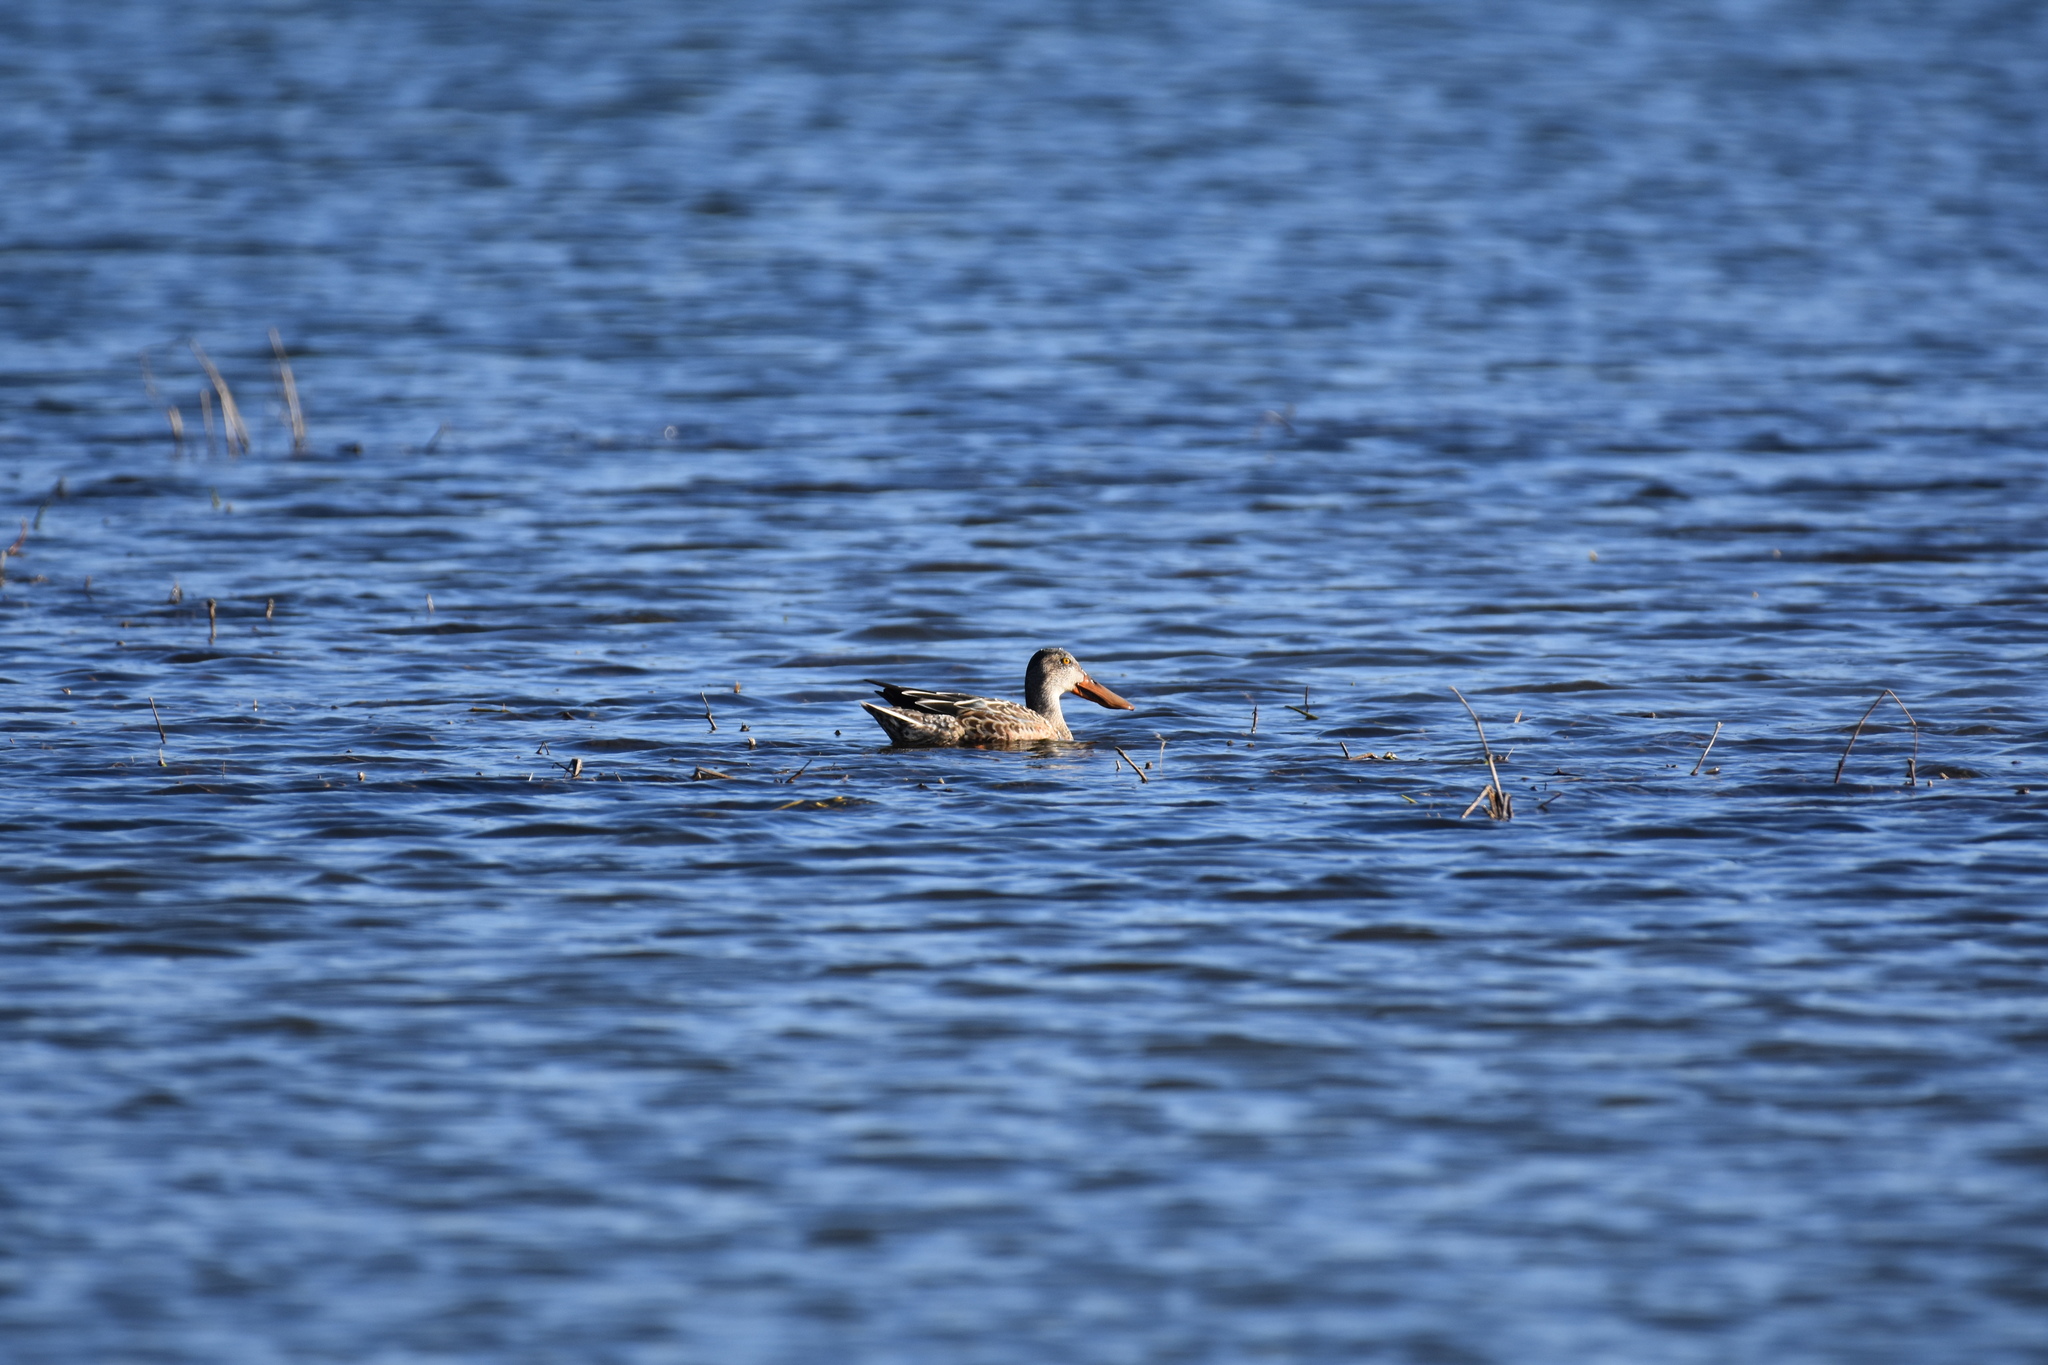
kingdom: Animalia
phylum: Chordata
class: Aves
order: Anseriformes
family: Anatidae
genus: Spatula
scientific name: Spatula clypeata
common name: Northern shoveler
